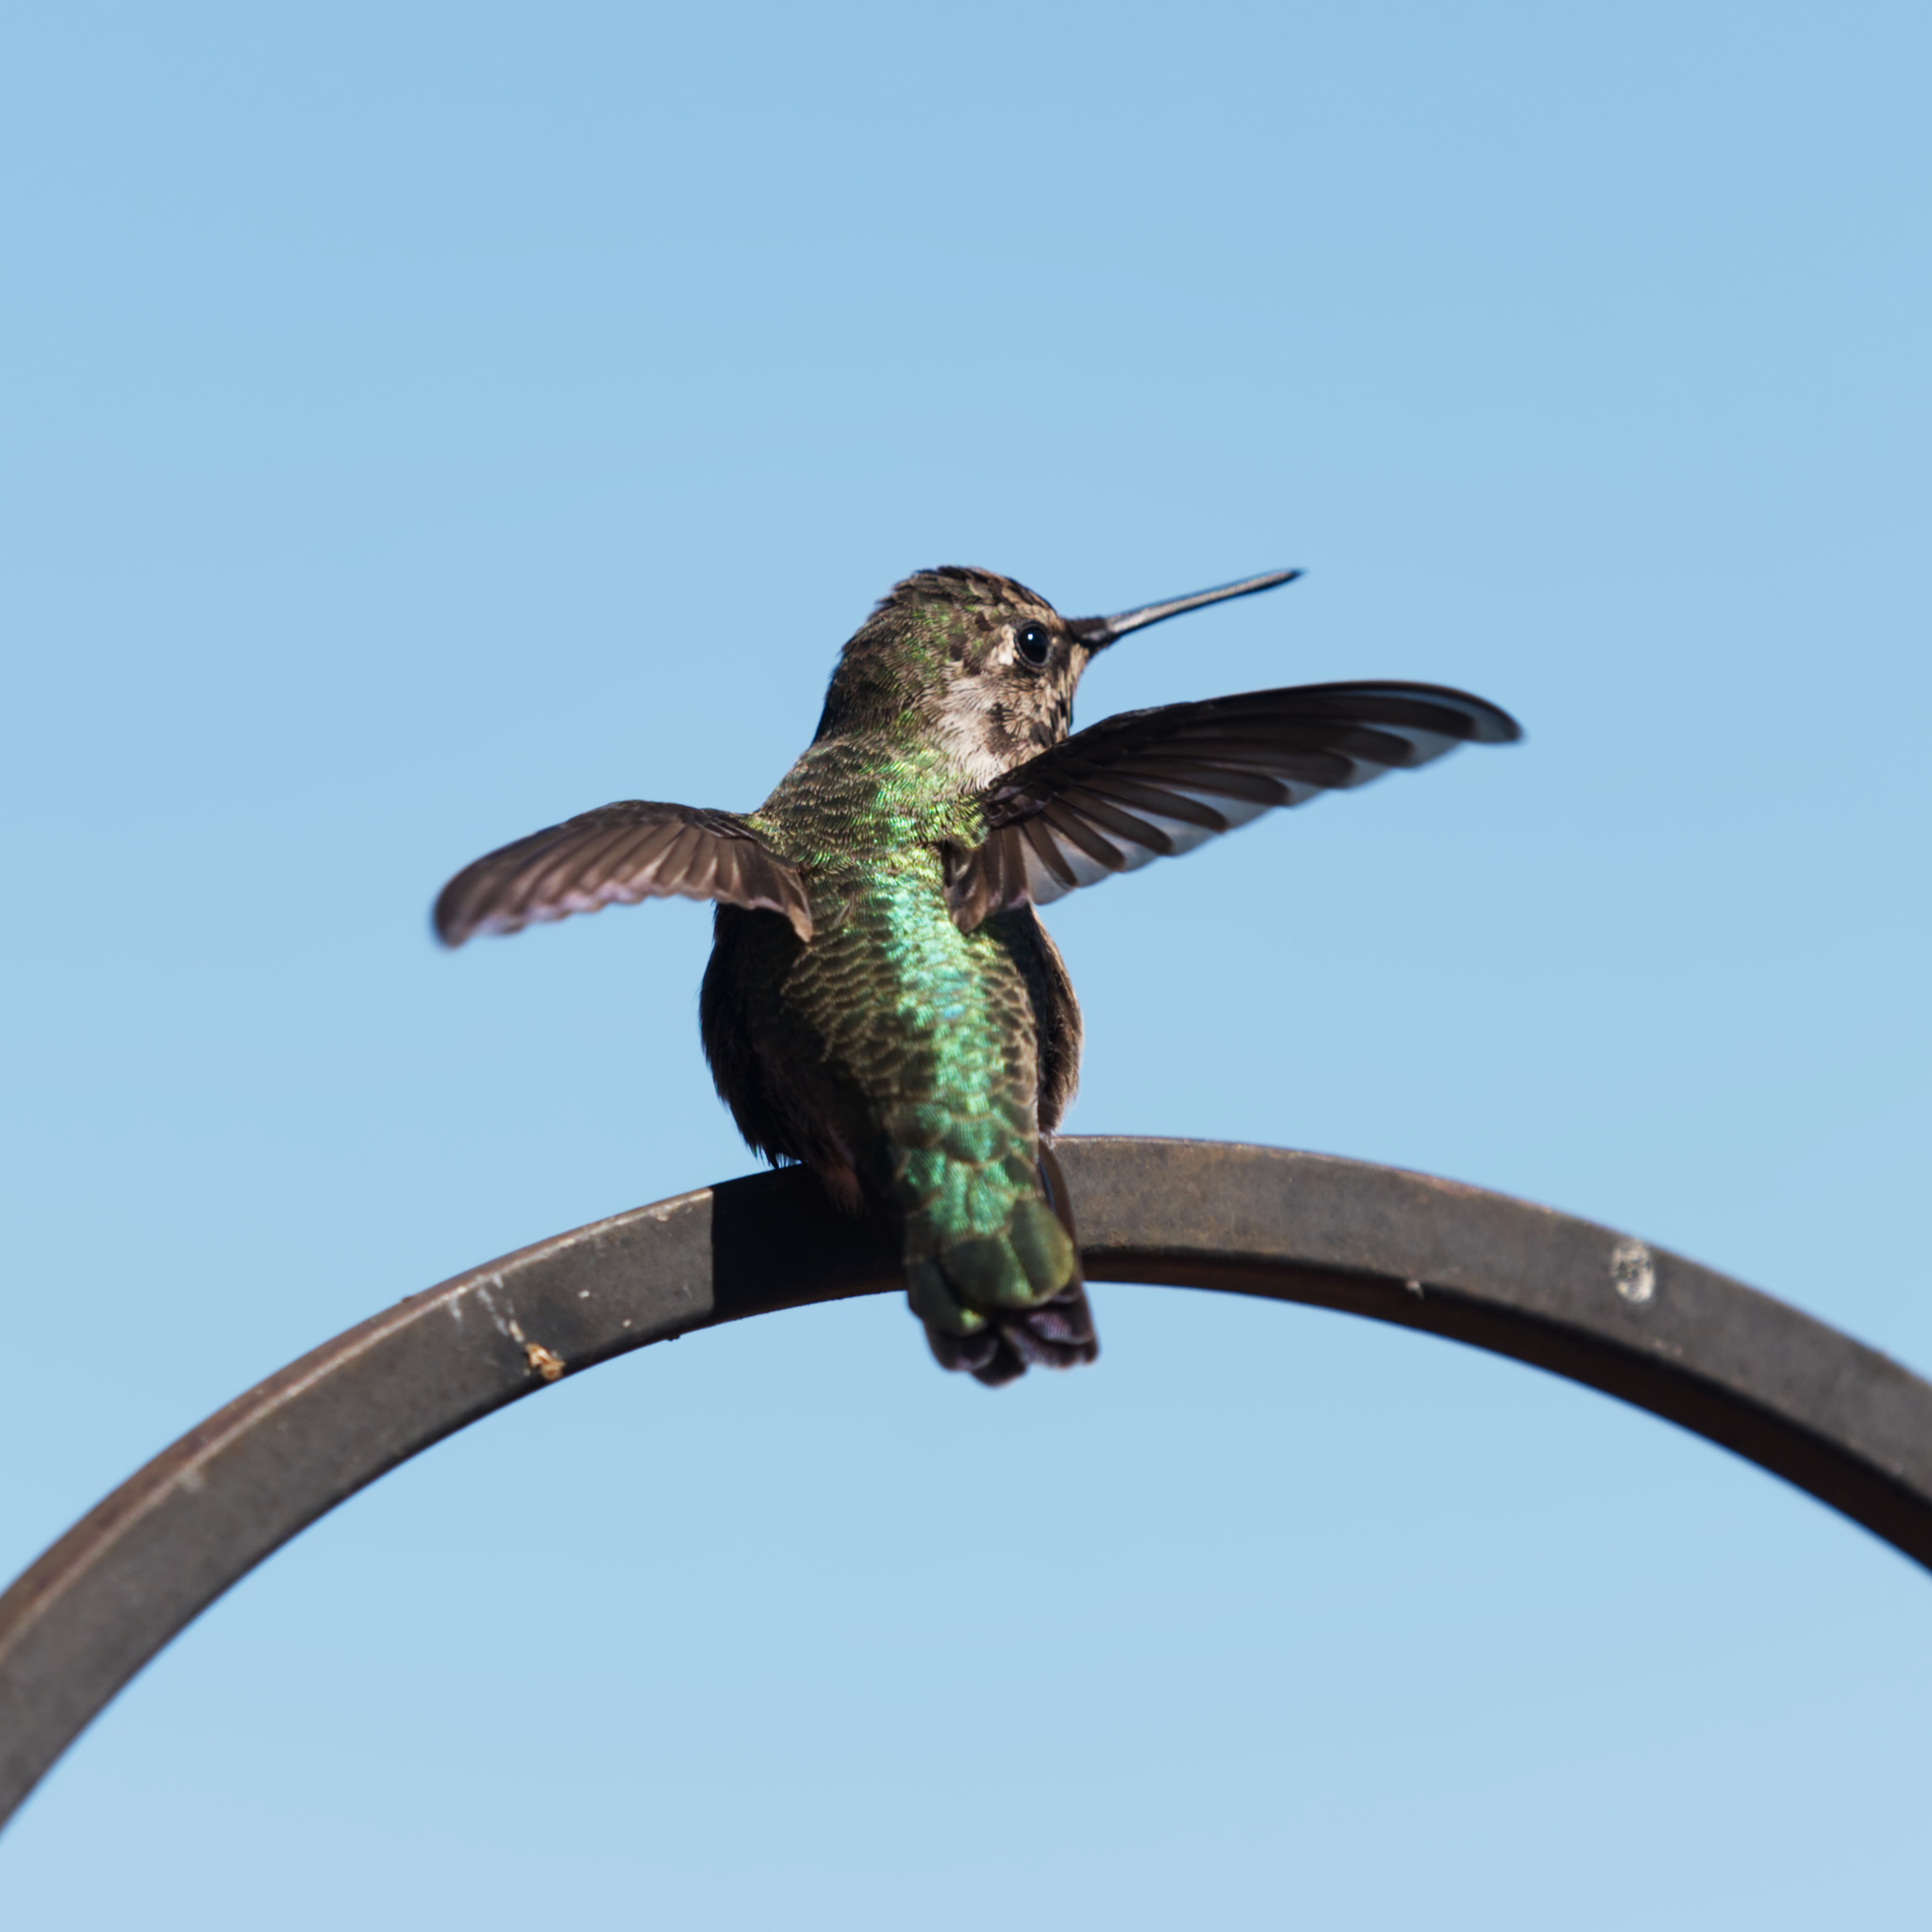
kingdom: Animalia
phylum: Chordata
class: Aves
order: Apodiformes
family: Trochilidae
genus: Calypte
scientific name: Calypte anna
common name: Anna's hummingbird
